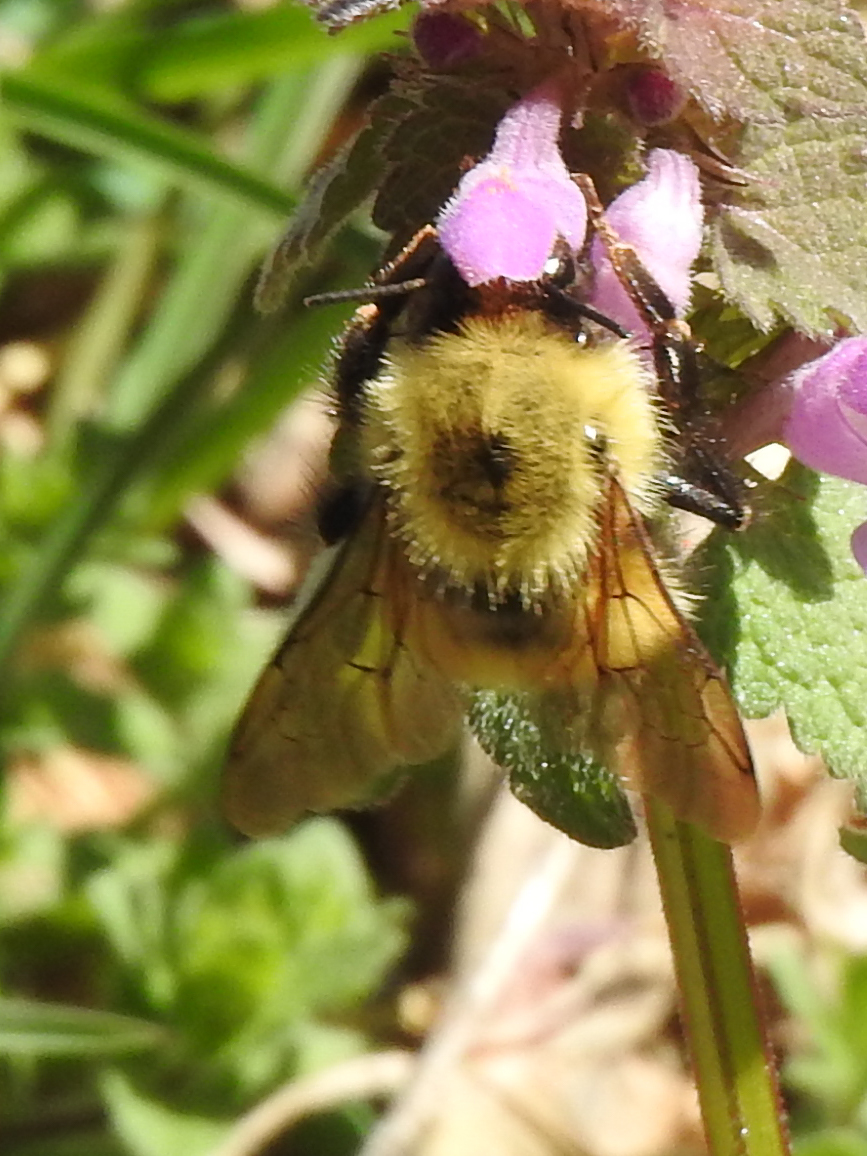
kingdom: Animalia
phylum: Arthropoda
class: Insecta
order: Hymenoptera
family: Apidae
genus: Bombus
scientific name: Bombus bimaculatus
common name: Two-spotted bumble bee
